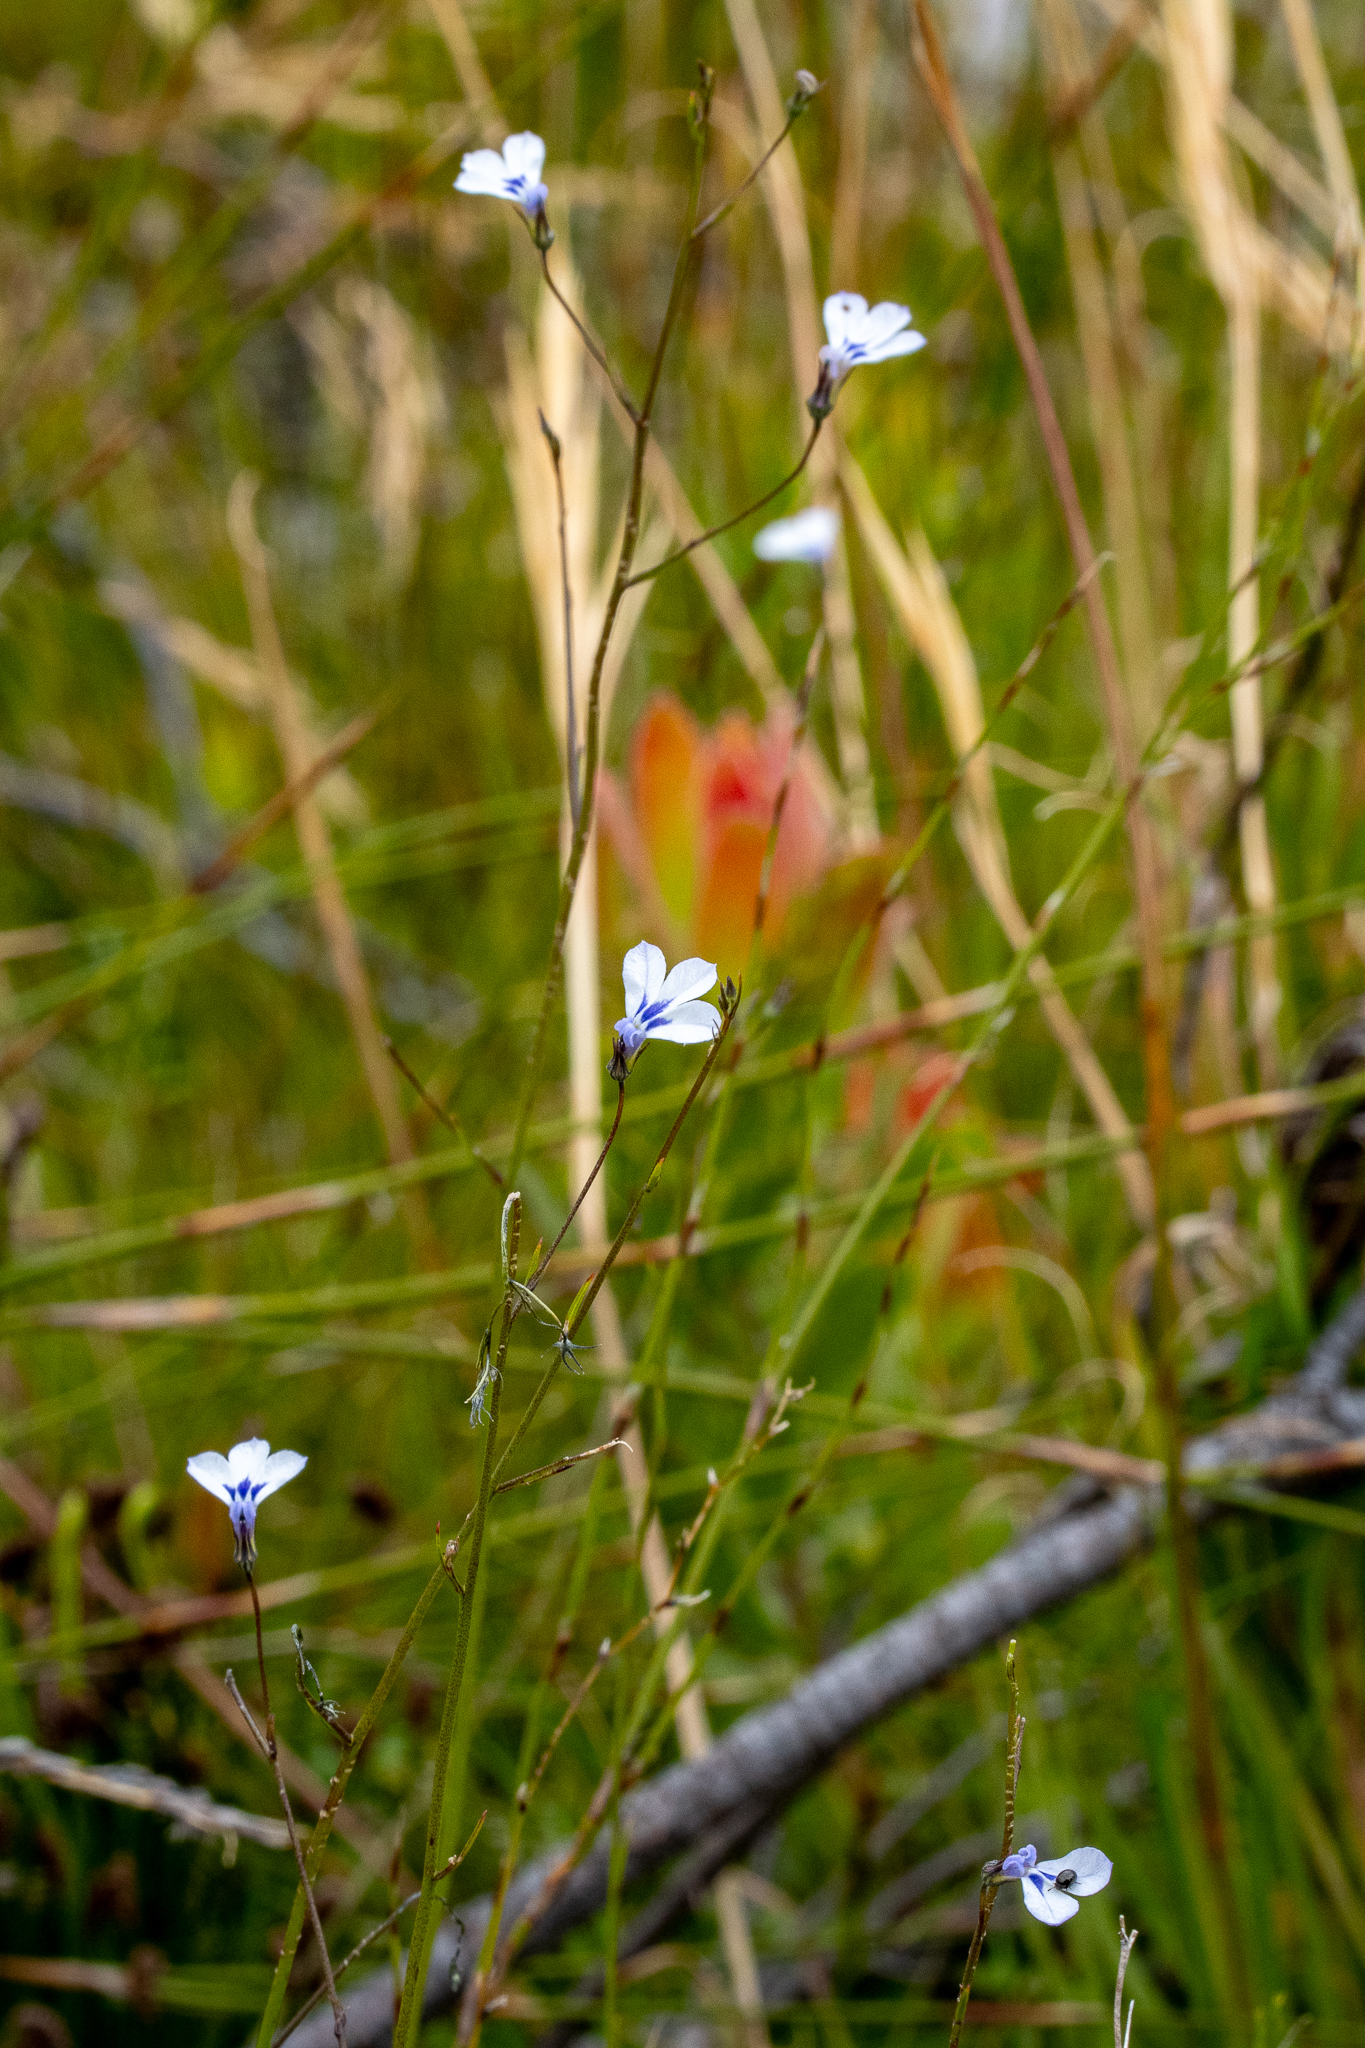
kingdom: Plantae
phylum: Tracheophyta
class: Magnoliopsida
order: Asterales
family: Campanulaceae
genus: Lobelia
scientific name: Lobelia setacea
